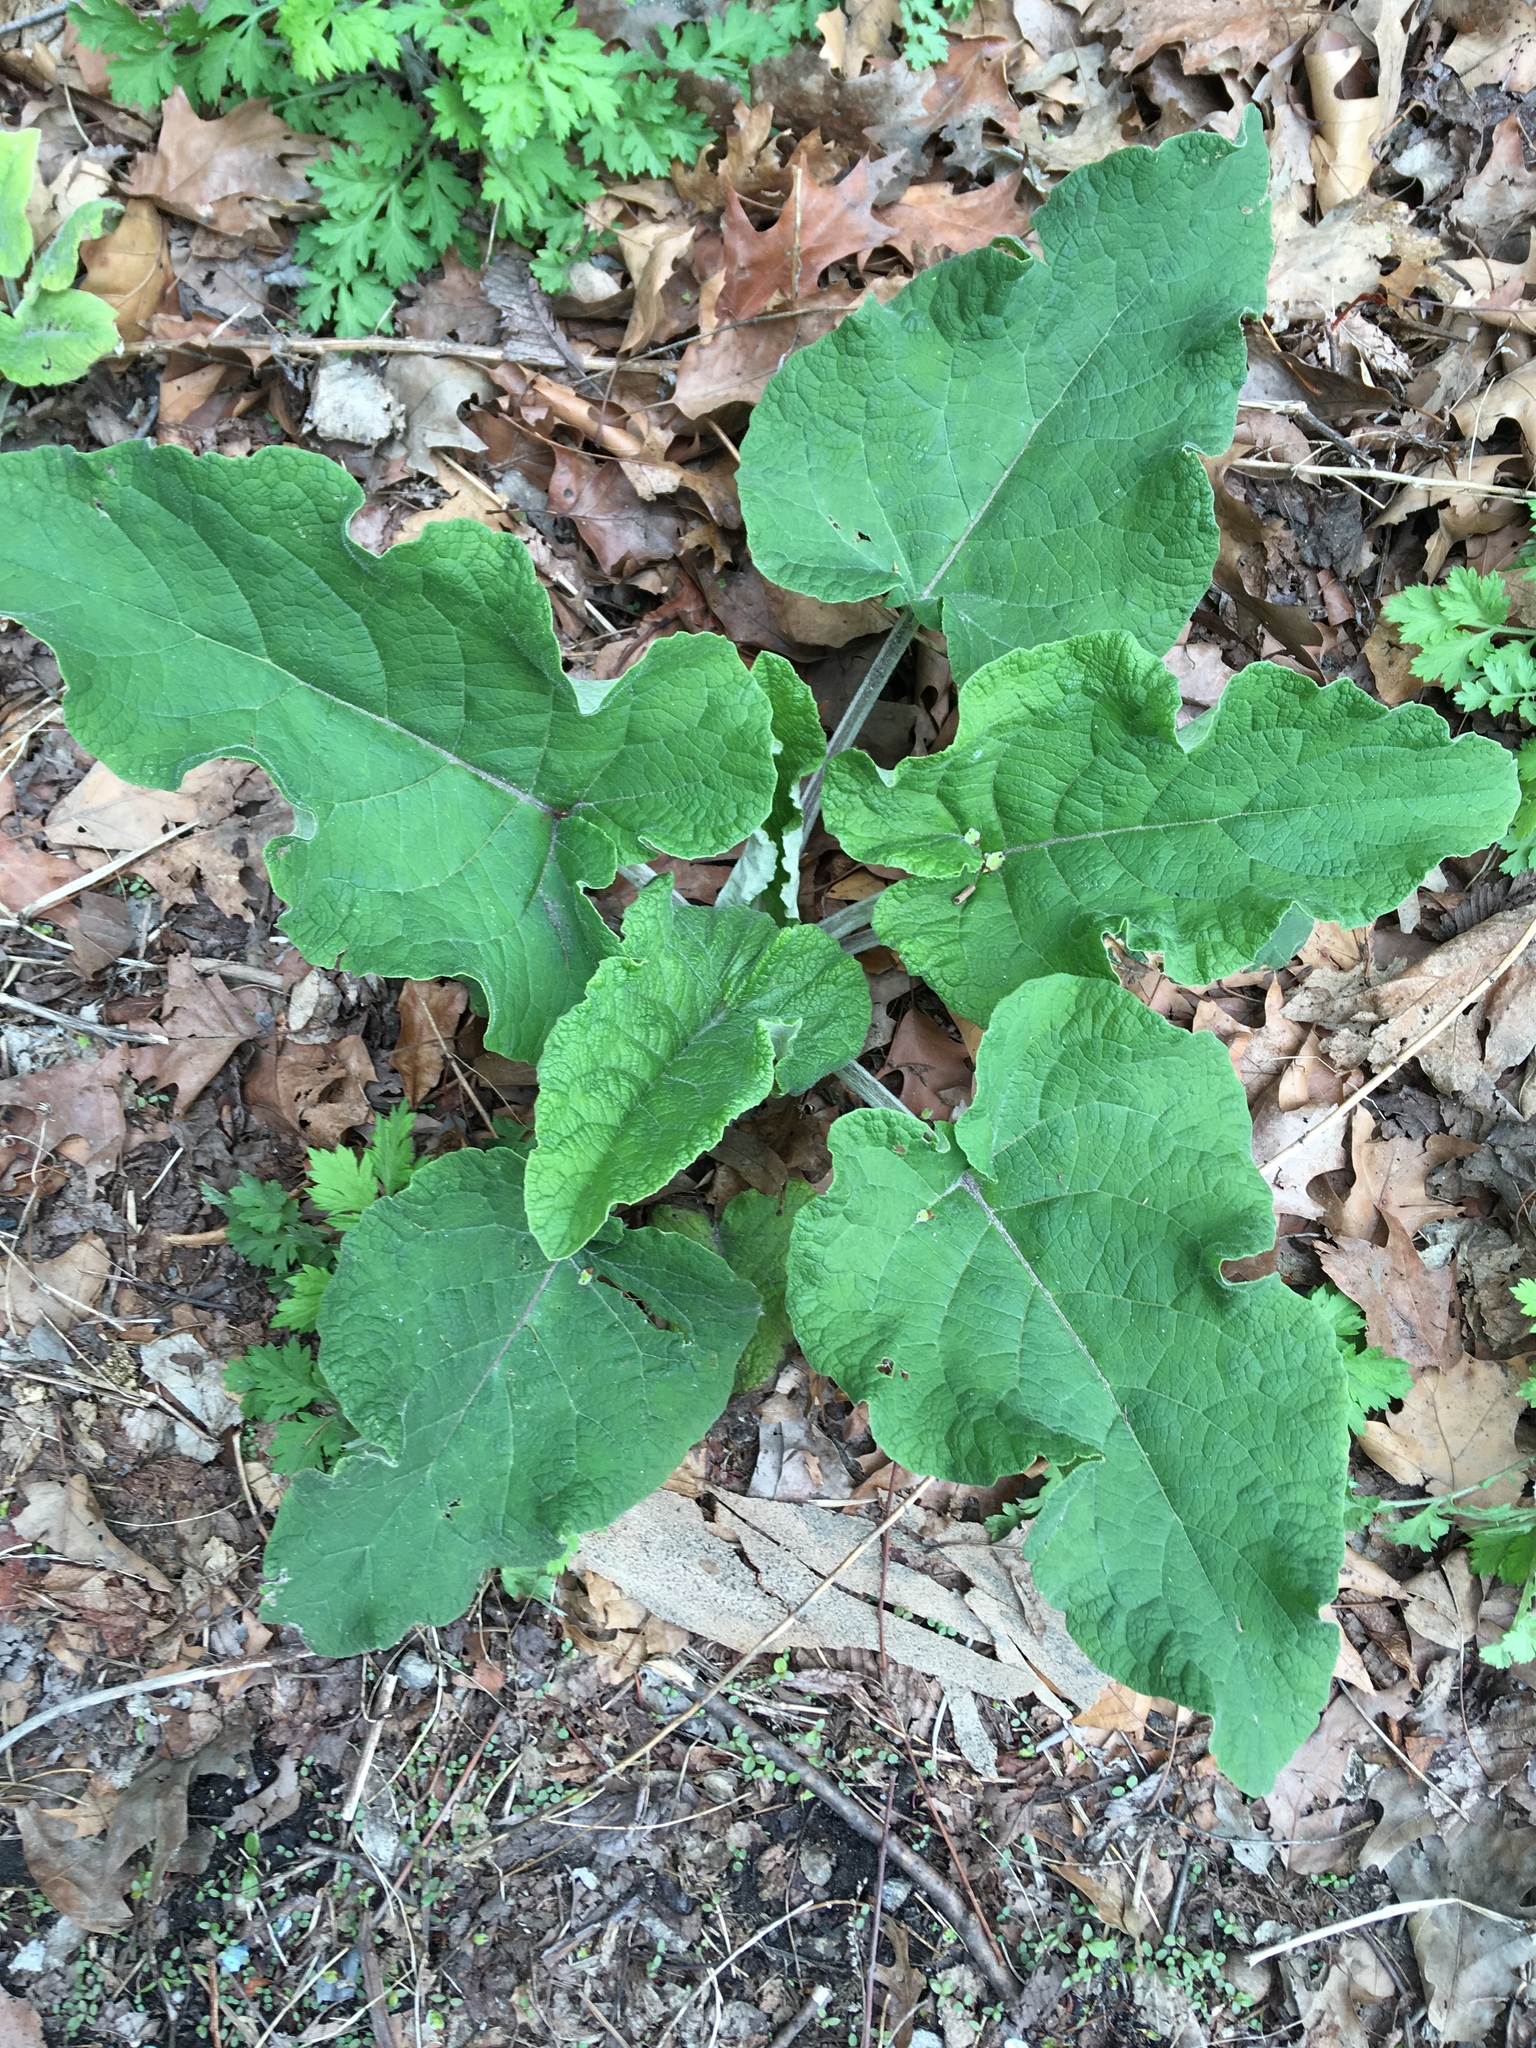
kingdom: Plantae
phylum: Tracheophyta
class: Magnoliopsida
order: Asterales
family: Asteraceae
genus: Arctium
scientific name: Arctium
